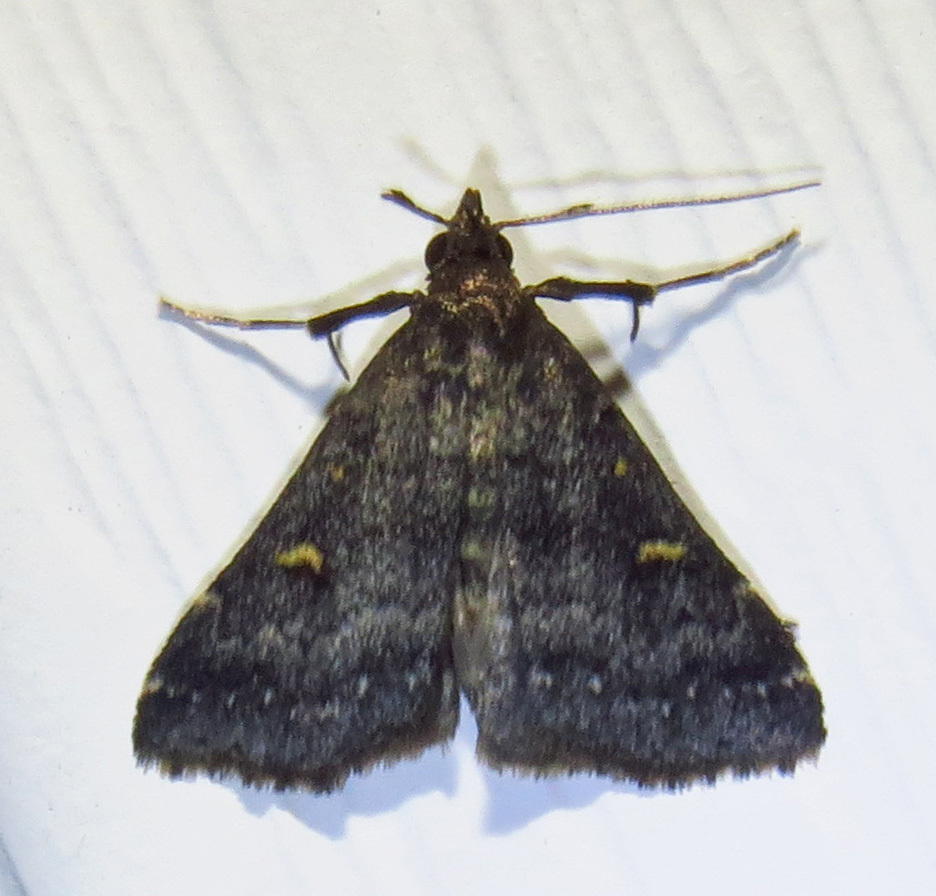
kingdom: Animalia
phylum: Arthropoda
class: Insecta
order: Lepidoptera
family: Erebidae
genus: Tetanolita
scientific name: Tetanolita mynesalis
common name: Smoky tetanolita moth
